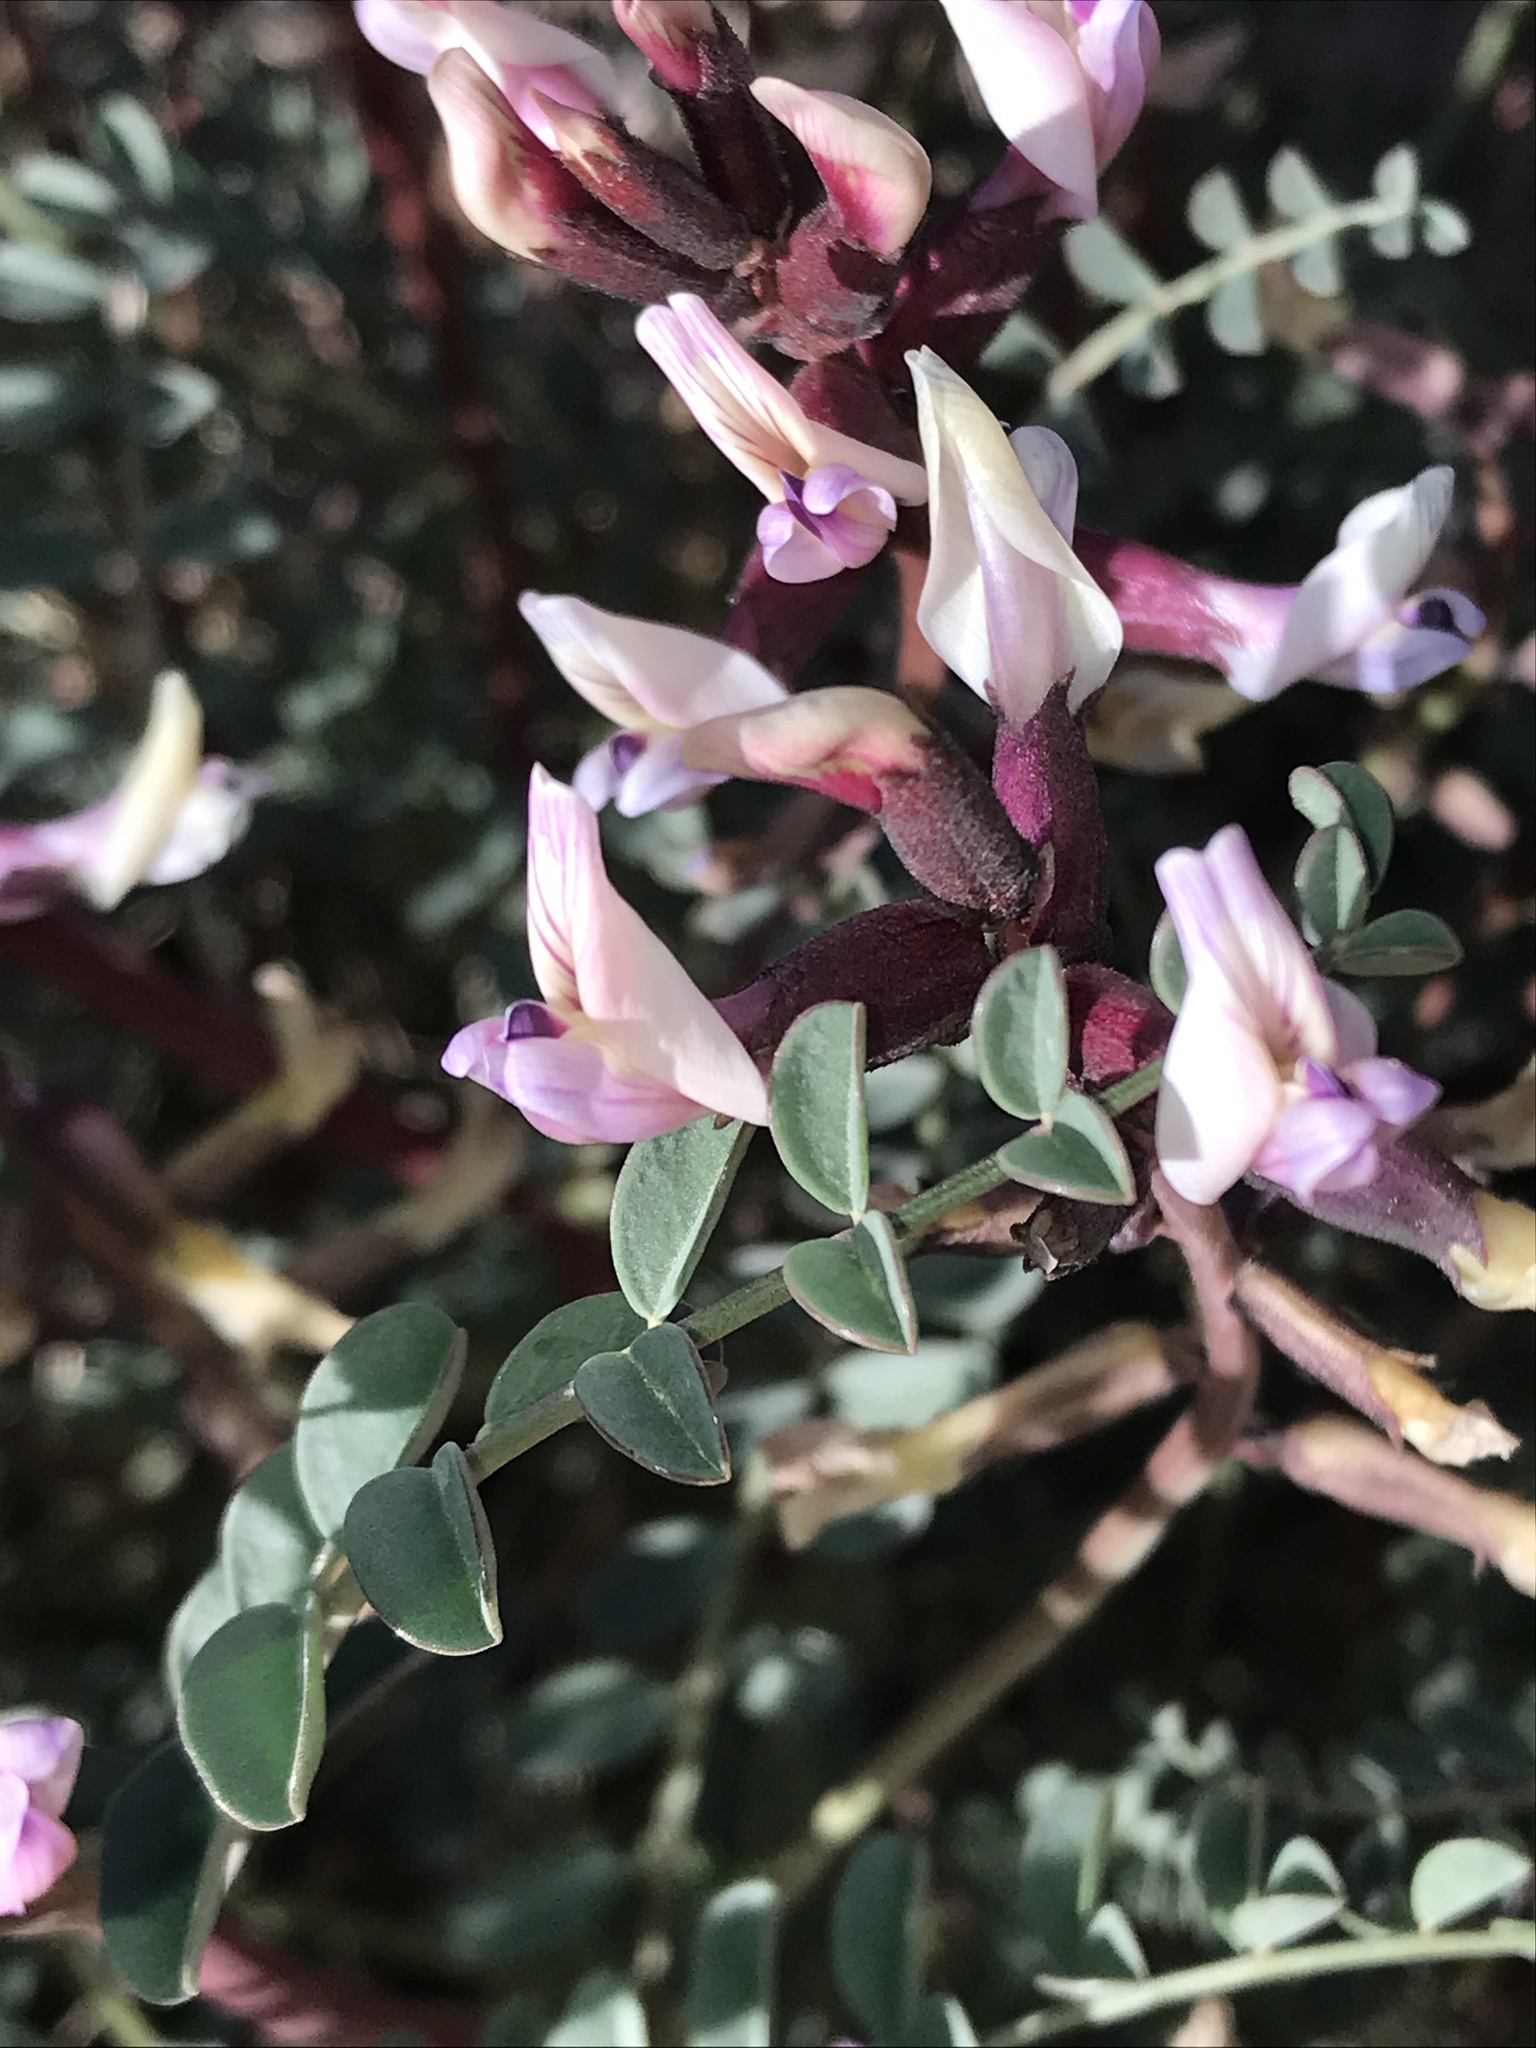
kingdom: Plantae
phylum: Tracheophyta
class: Magnoliopsida
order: Fabales
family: Fabaceae
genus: Astragalus
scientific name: Astragalus preussii
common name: Preuss's milk-vetch
